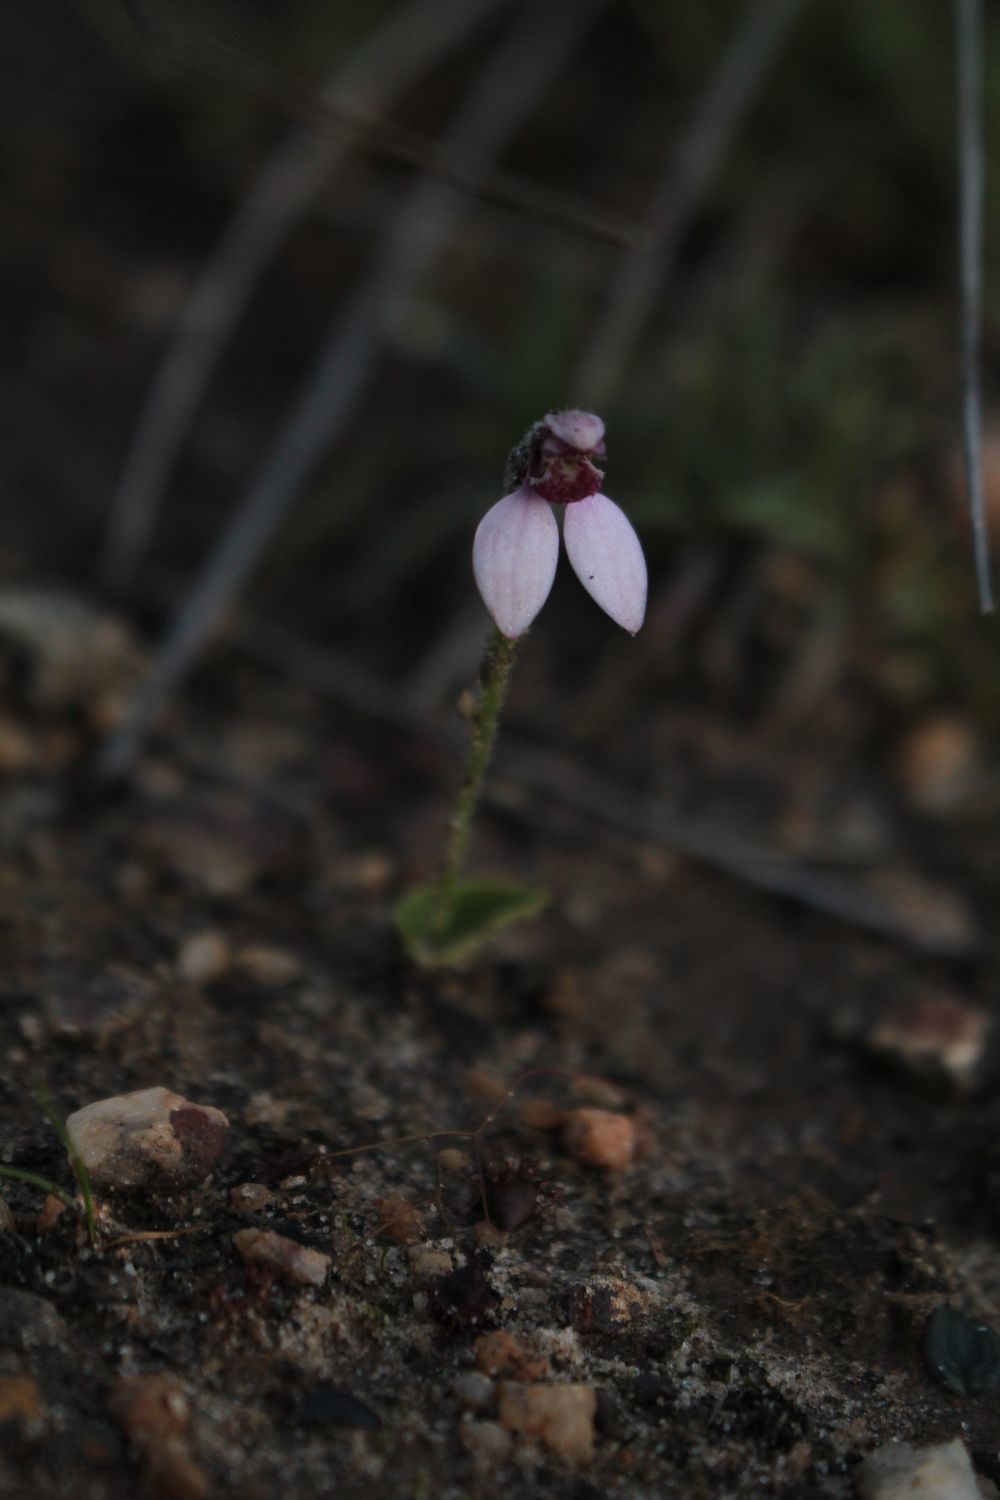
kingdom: Plantae
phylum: Tracheophyta
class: Liliopsida
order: Asparagales
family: Orchidaceae
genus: Eriochilus
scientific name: Eriochilus scaber
